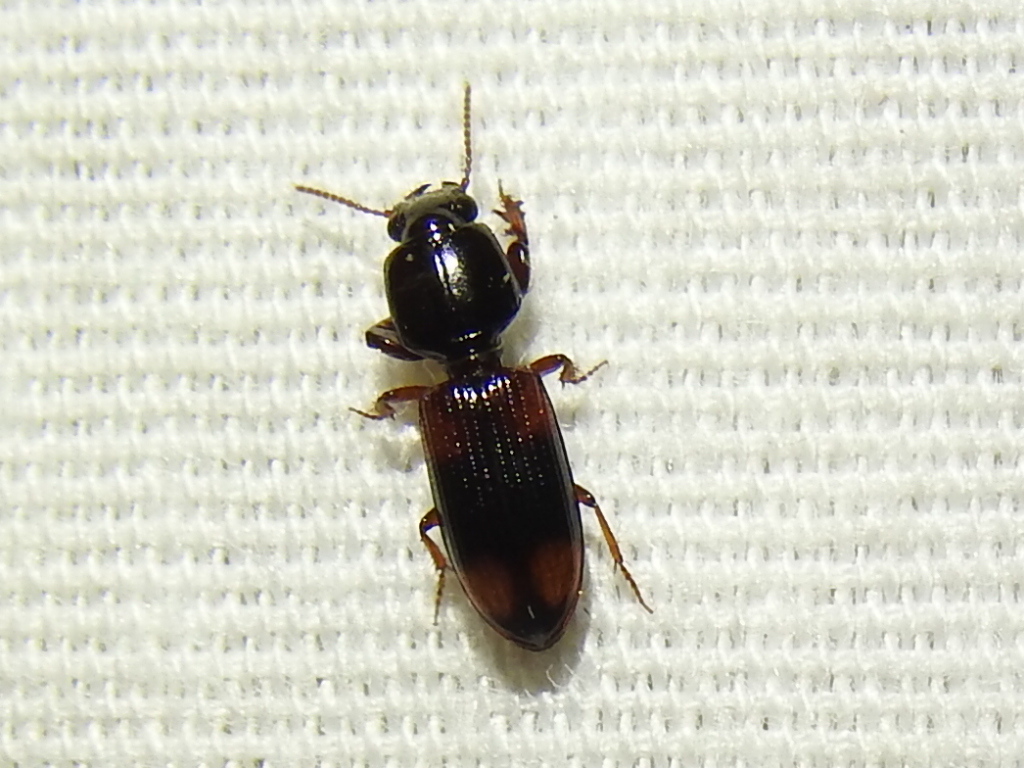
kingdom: Animalia
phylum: Arthropoda
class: Insecta
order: Coleoptera
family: Carabidae
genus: Clivina
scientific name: Clivina bipustulata
